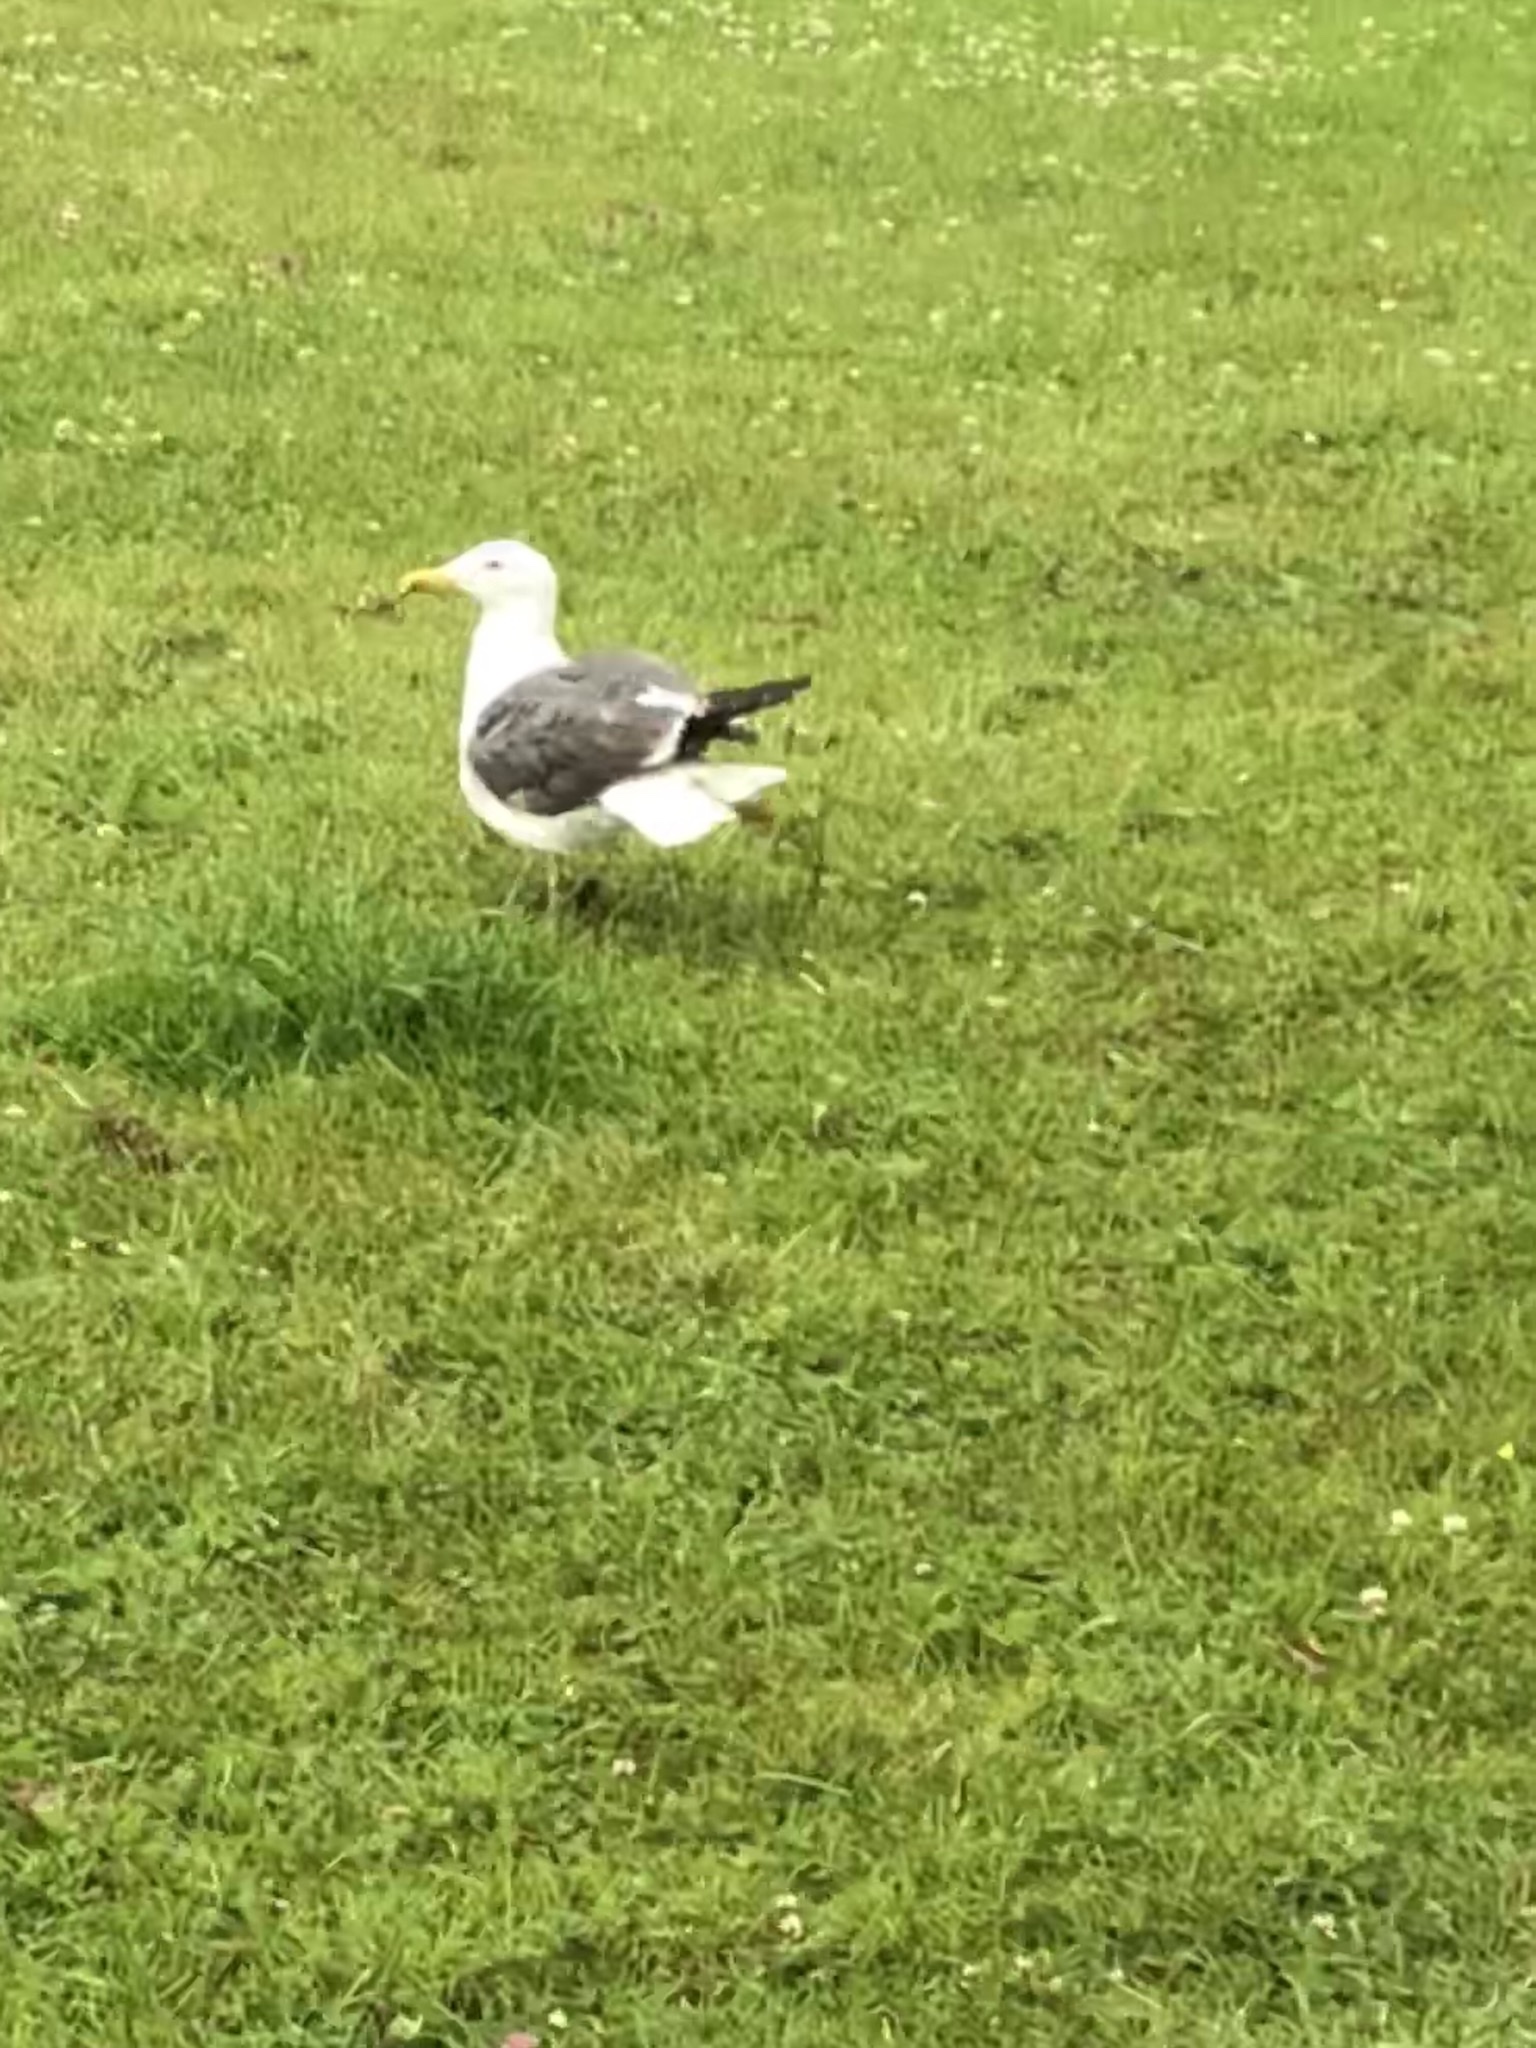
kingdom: Animalia
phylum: Chordata
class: Aves
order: Charadriiformes
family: Laridae
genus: Larus
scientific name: Larus fuscus
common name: Lesser black-backed gull
